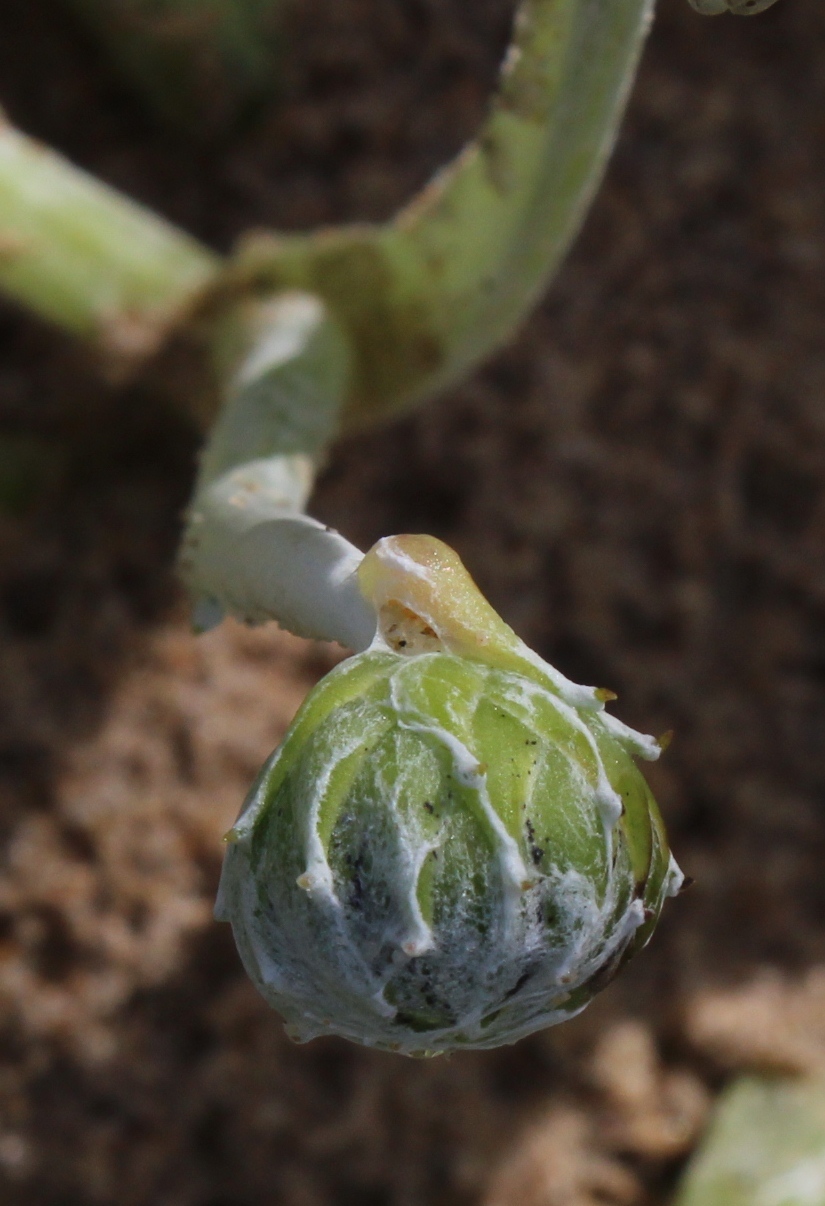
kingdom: Plantae
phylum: Tracheophyta
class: Magnoliopsida
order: Asterales
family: Asteraceae
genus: Arctotheca
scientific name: Arctotheca populifolia
